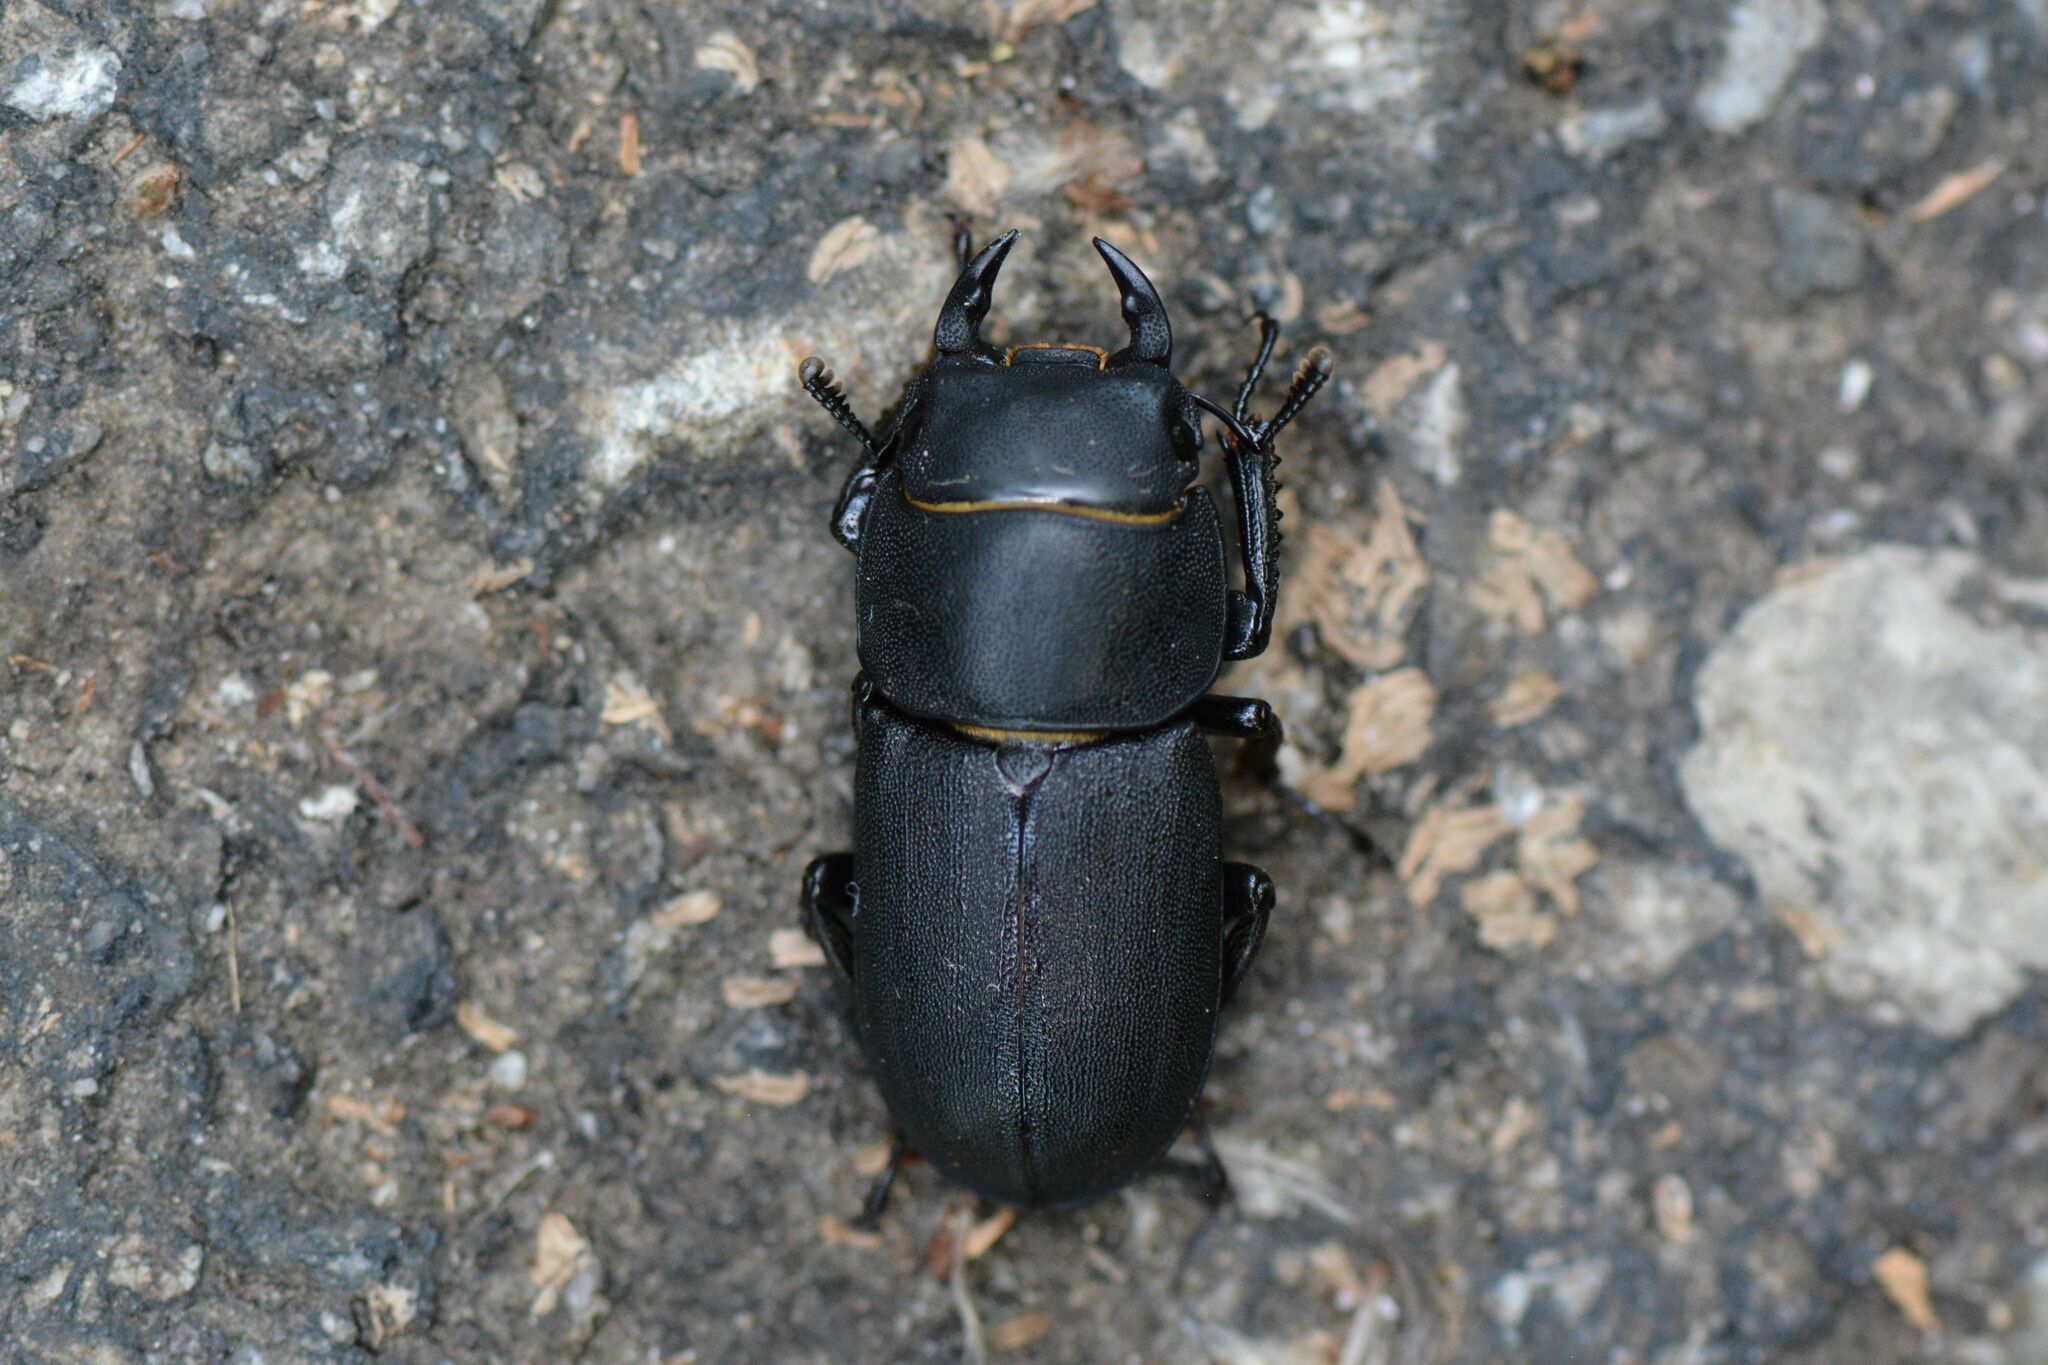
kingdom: Animalia
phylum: Arthropoda
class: Insecta
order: Coleoptera
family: Lucanidae
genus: Dorcus
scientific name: Dorcus parallelipipedus
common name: Lesser stag beetle
